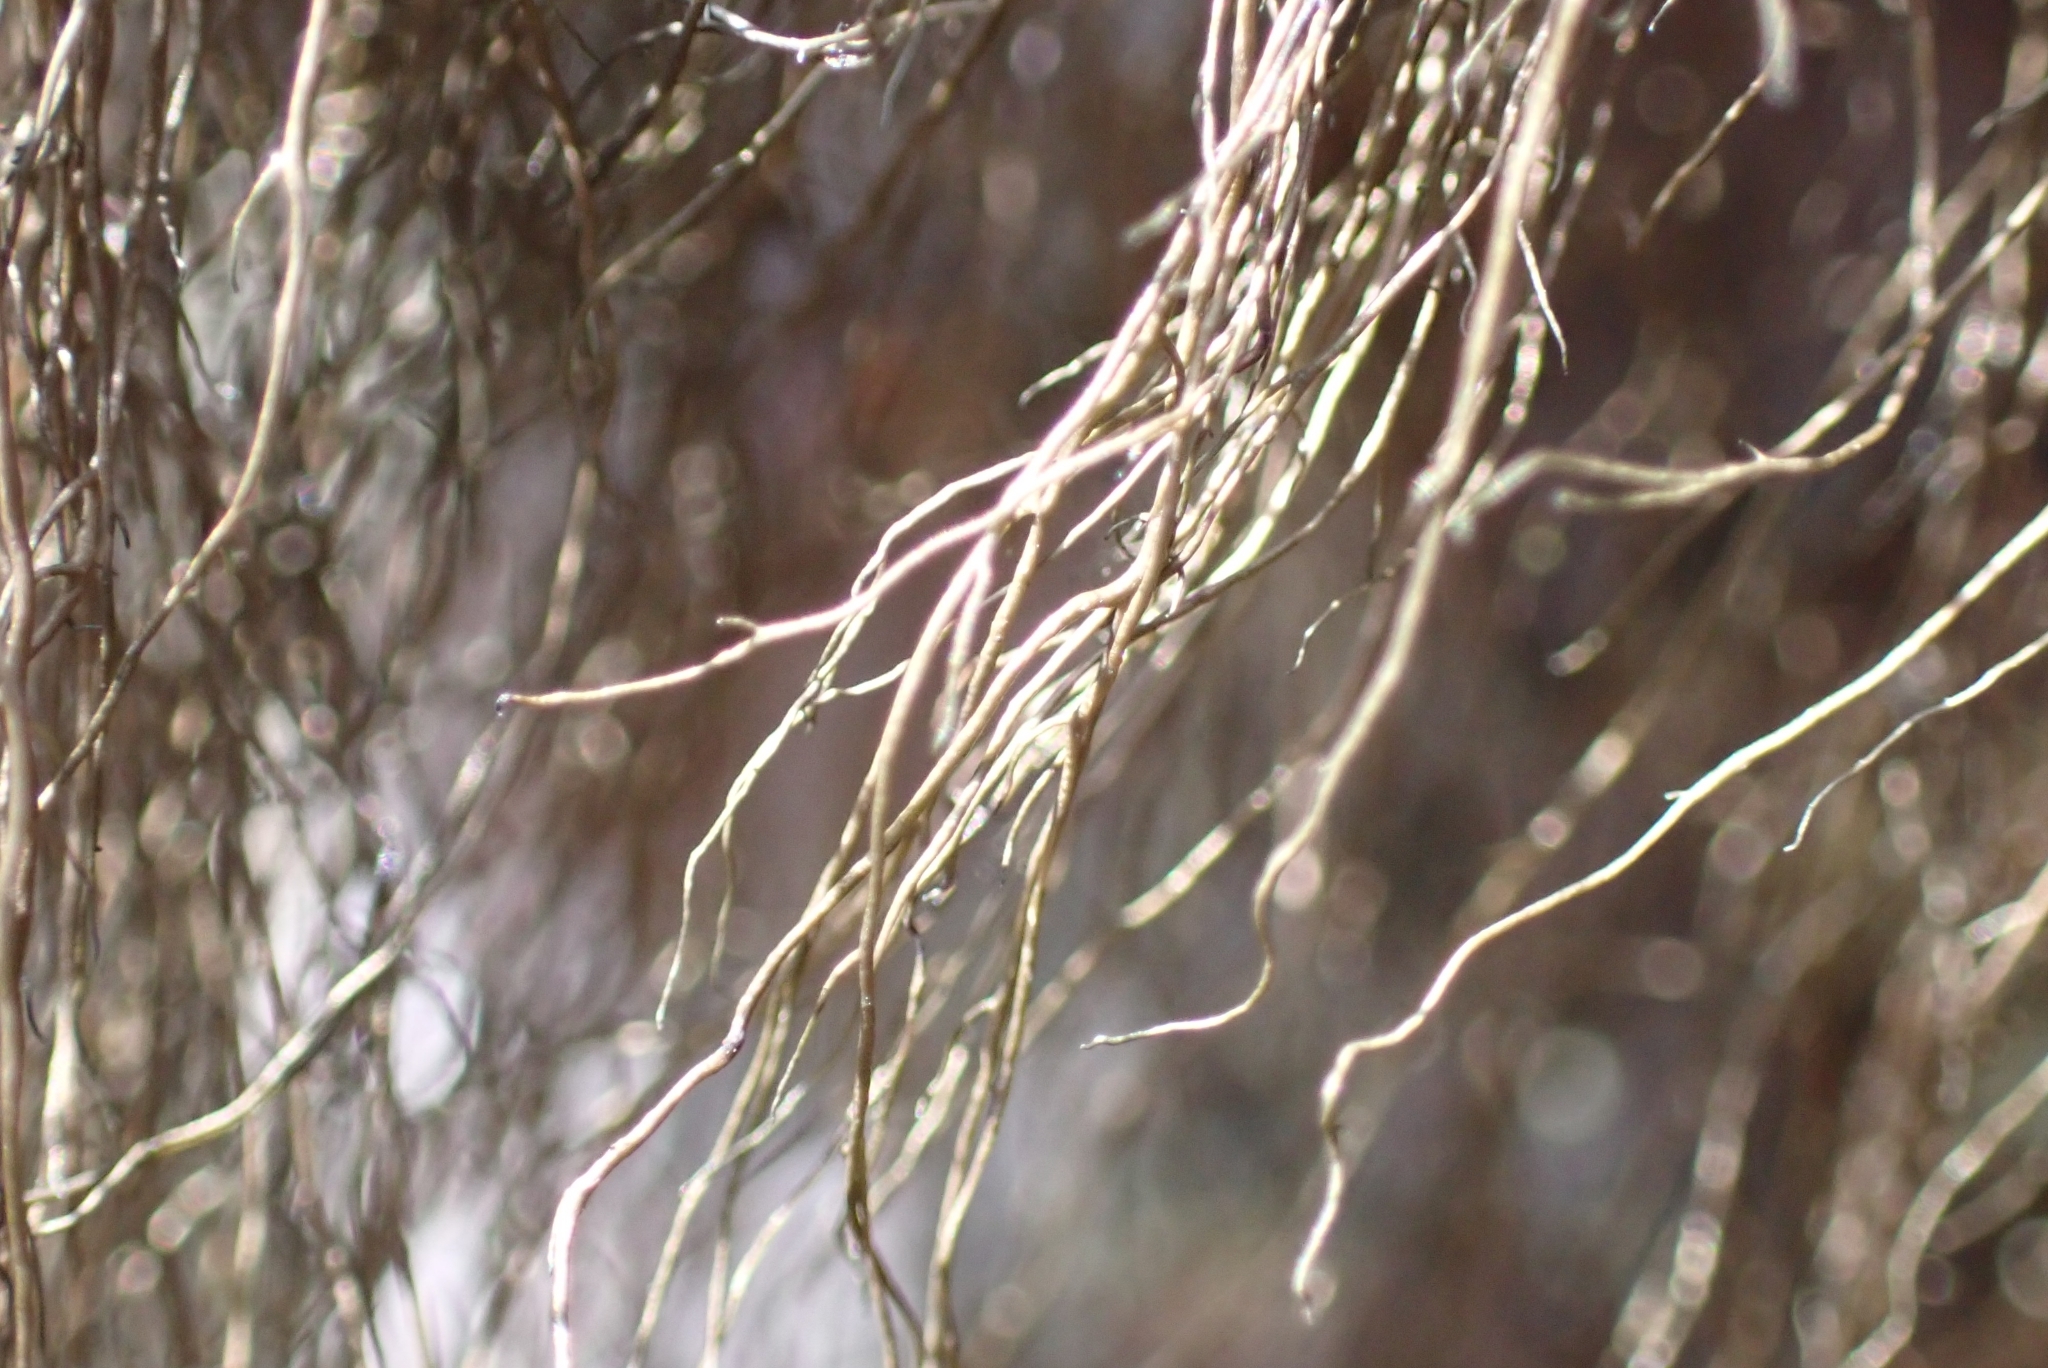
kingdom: Fungi
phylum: Ascomycota
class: Lecanoromycetes
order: Lecanorales
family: Parmeliaceae
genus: Bryoria
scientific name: Bryoria fuscescens
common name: Pale-footed horsehair lichen
